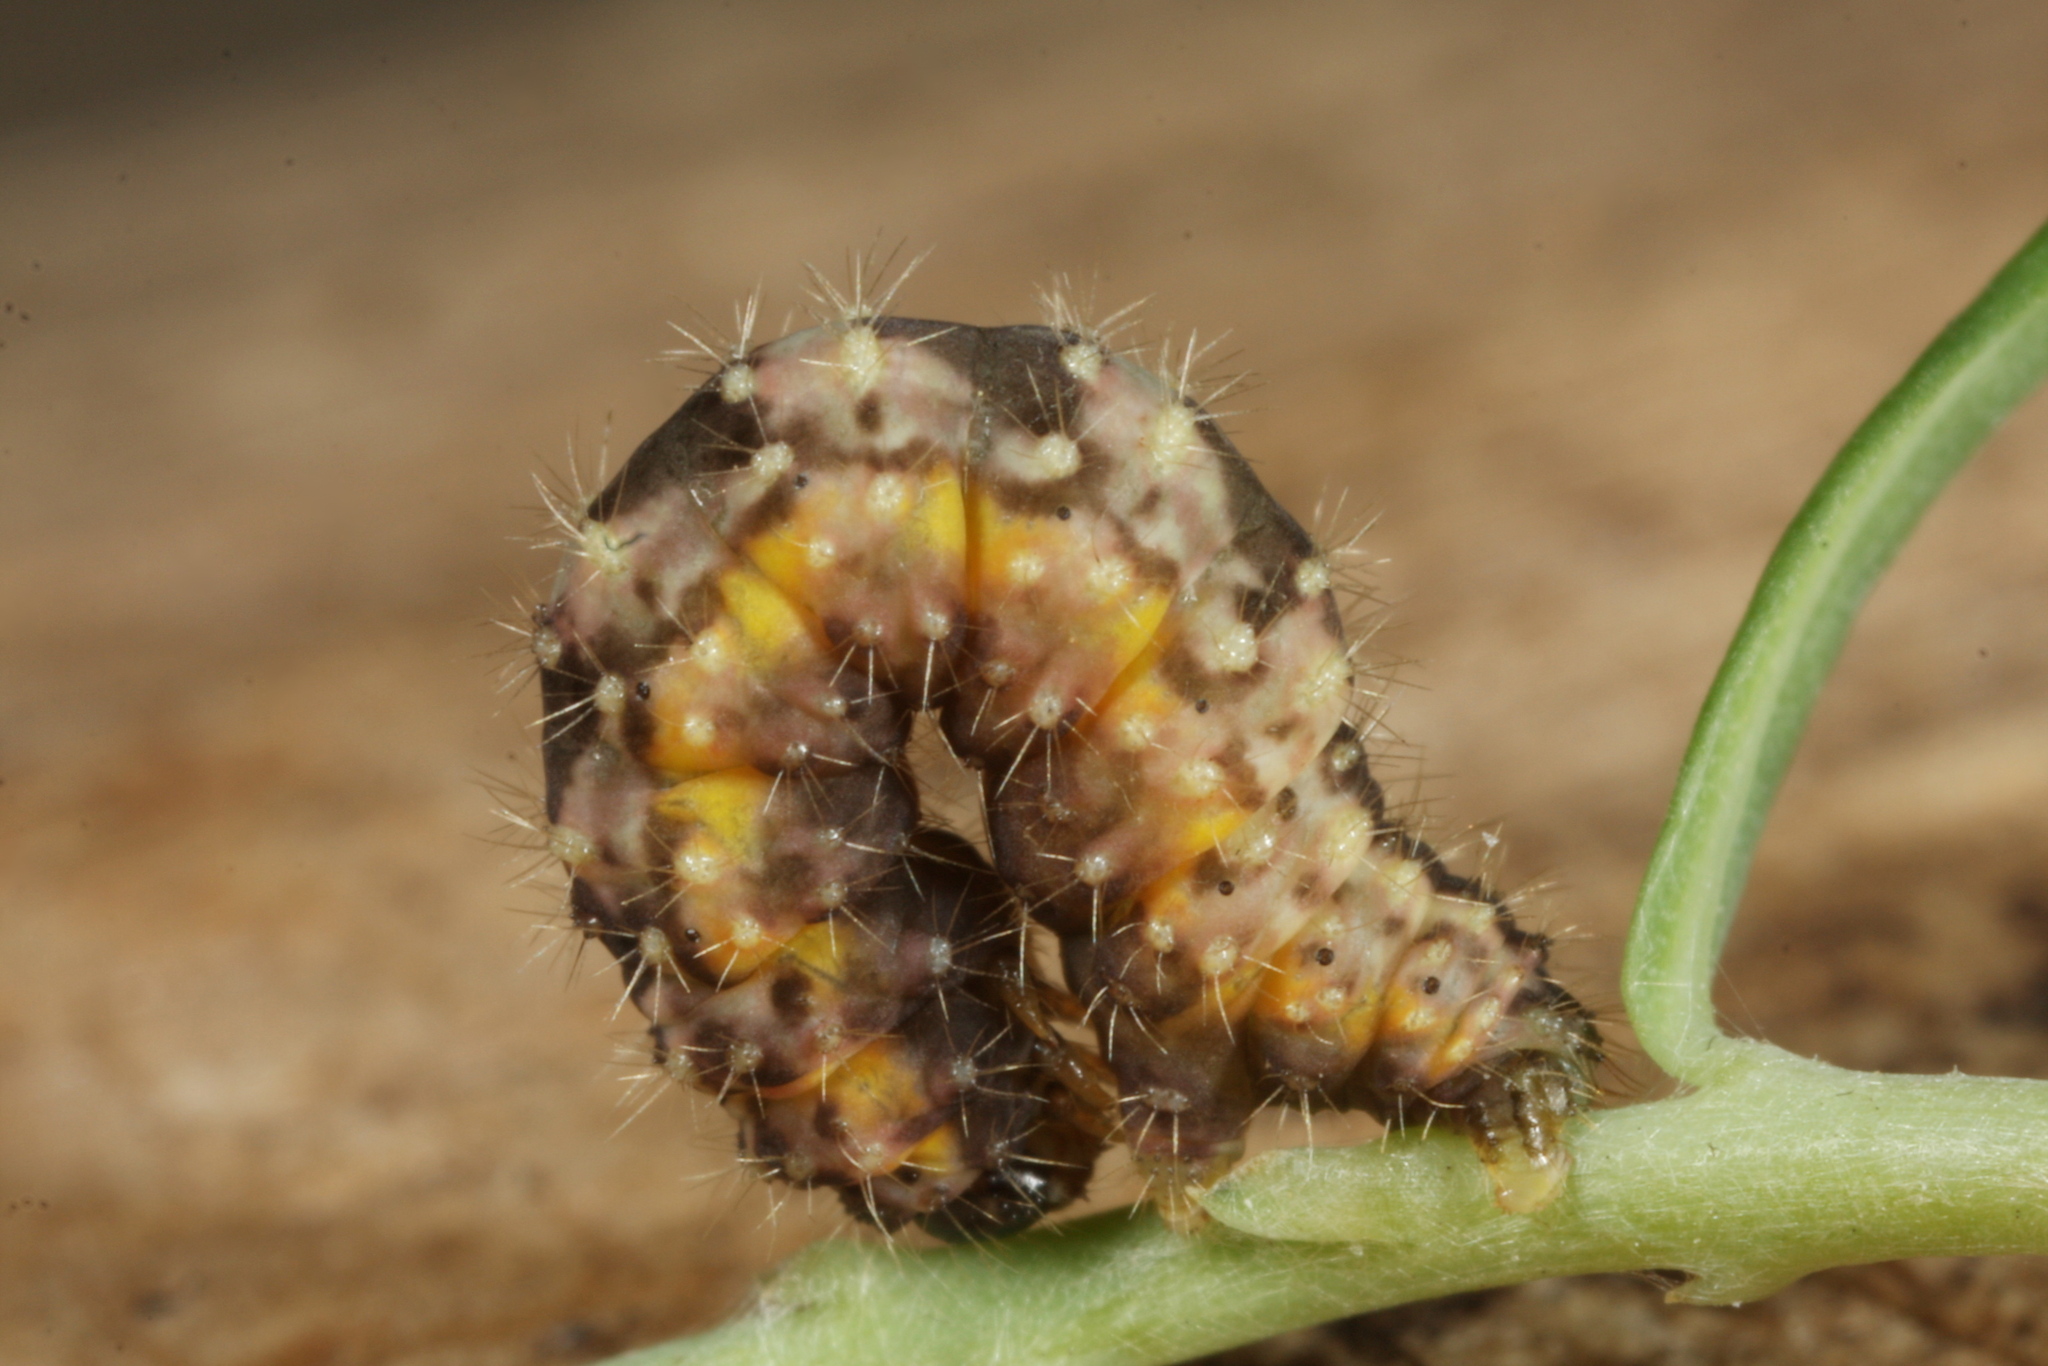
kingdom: Animalia
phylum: Arthropoda
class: Insecta
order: Lepidoptera
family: Geometridae
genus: Minoa
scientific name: Minoa murinata
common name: Drab looper
